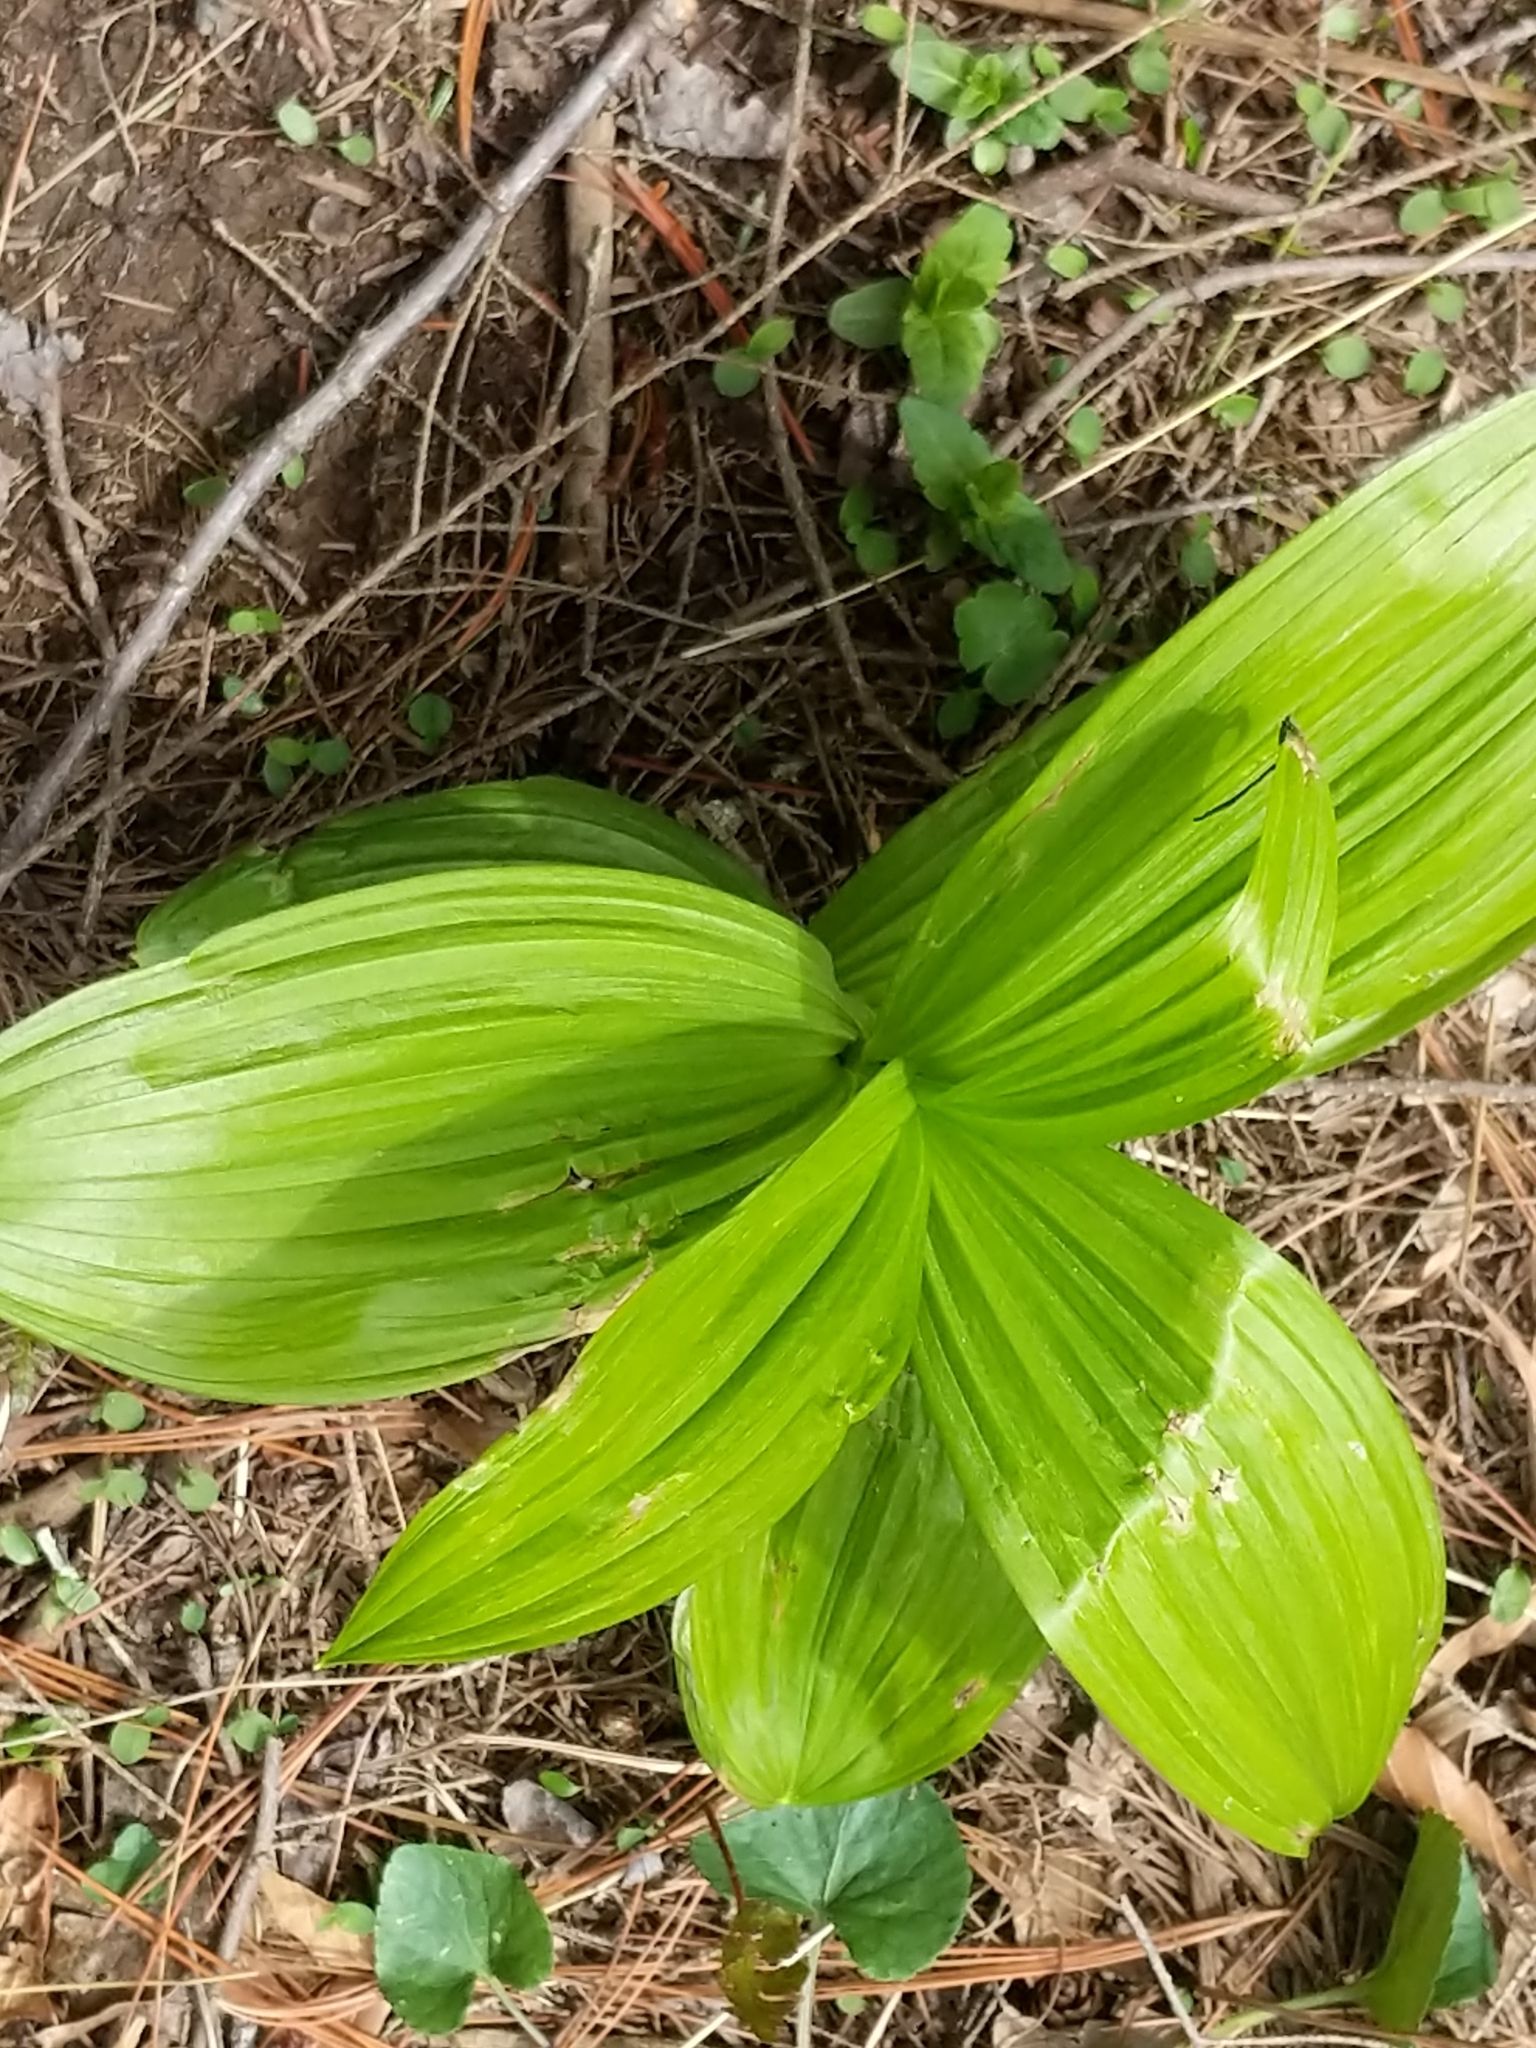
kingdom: Plantae
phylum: Tracheophyta
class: Liliopsida
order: Liliales
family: Melanthiaceae
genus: Veratrum
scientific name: Veratrum viride
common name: American false hellebore
